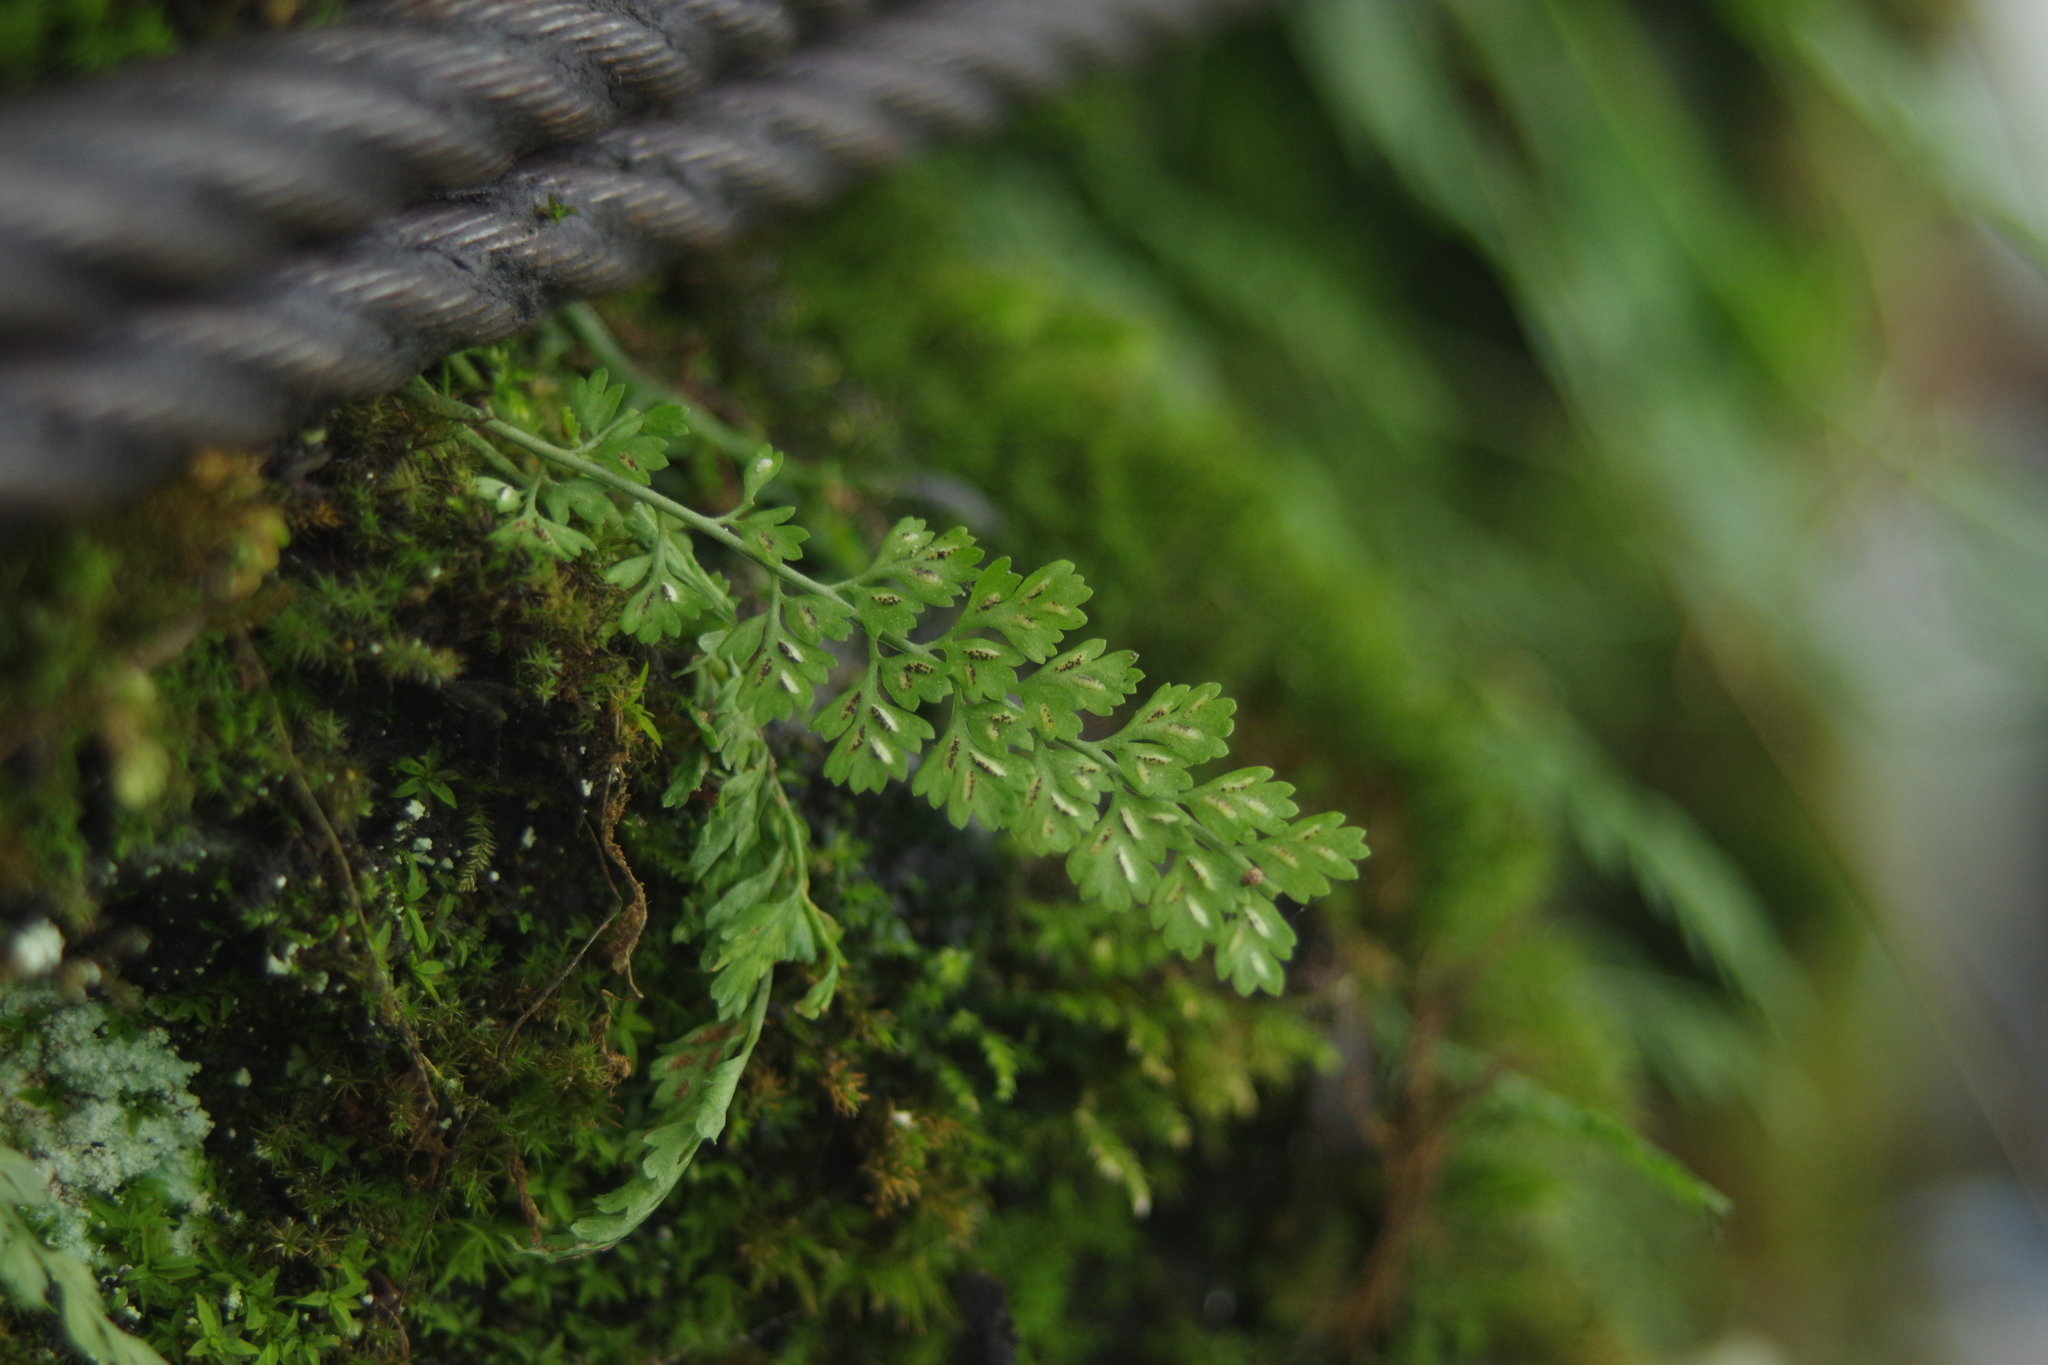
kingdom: Plantae
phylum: Tracheophyta
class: Polypodiopsida
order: Polypodiales
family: Aspleniaceae
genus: Asplenium
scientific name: Asplenium laciniatum
